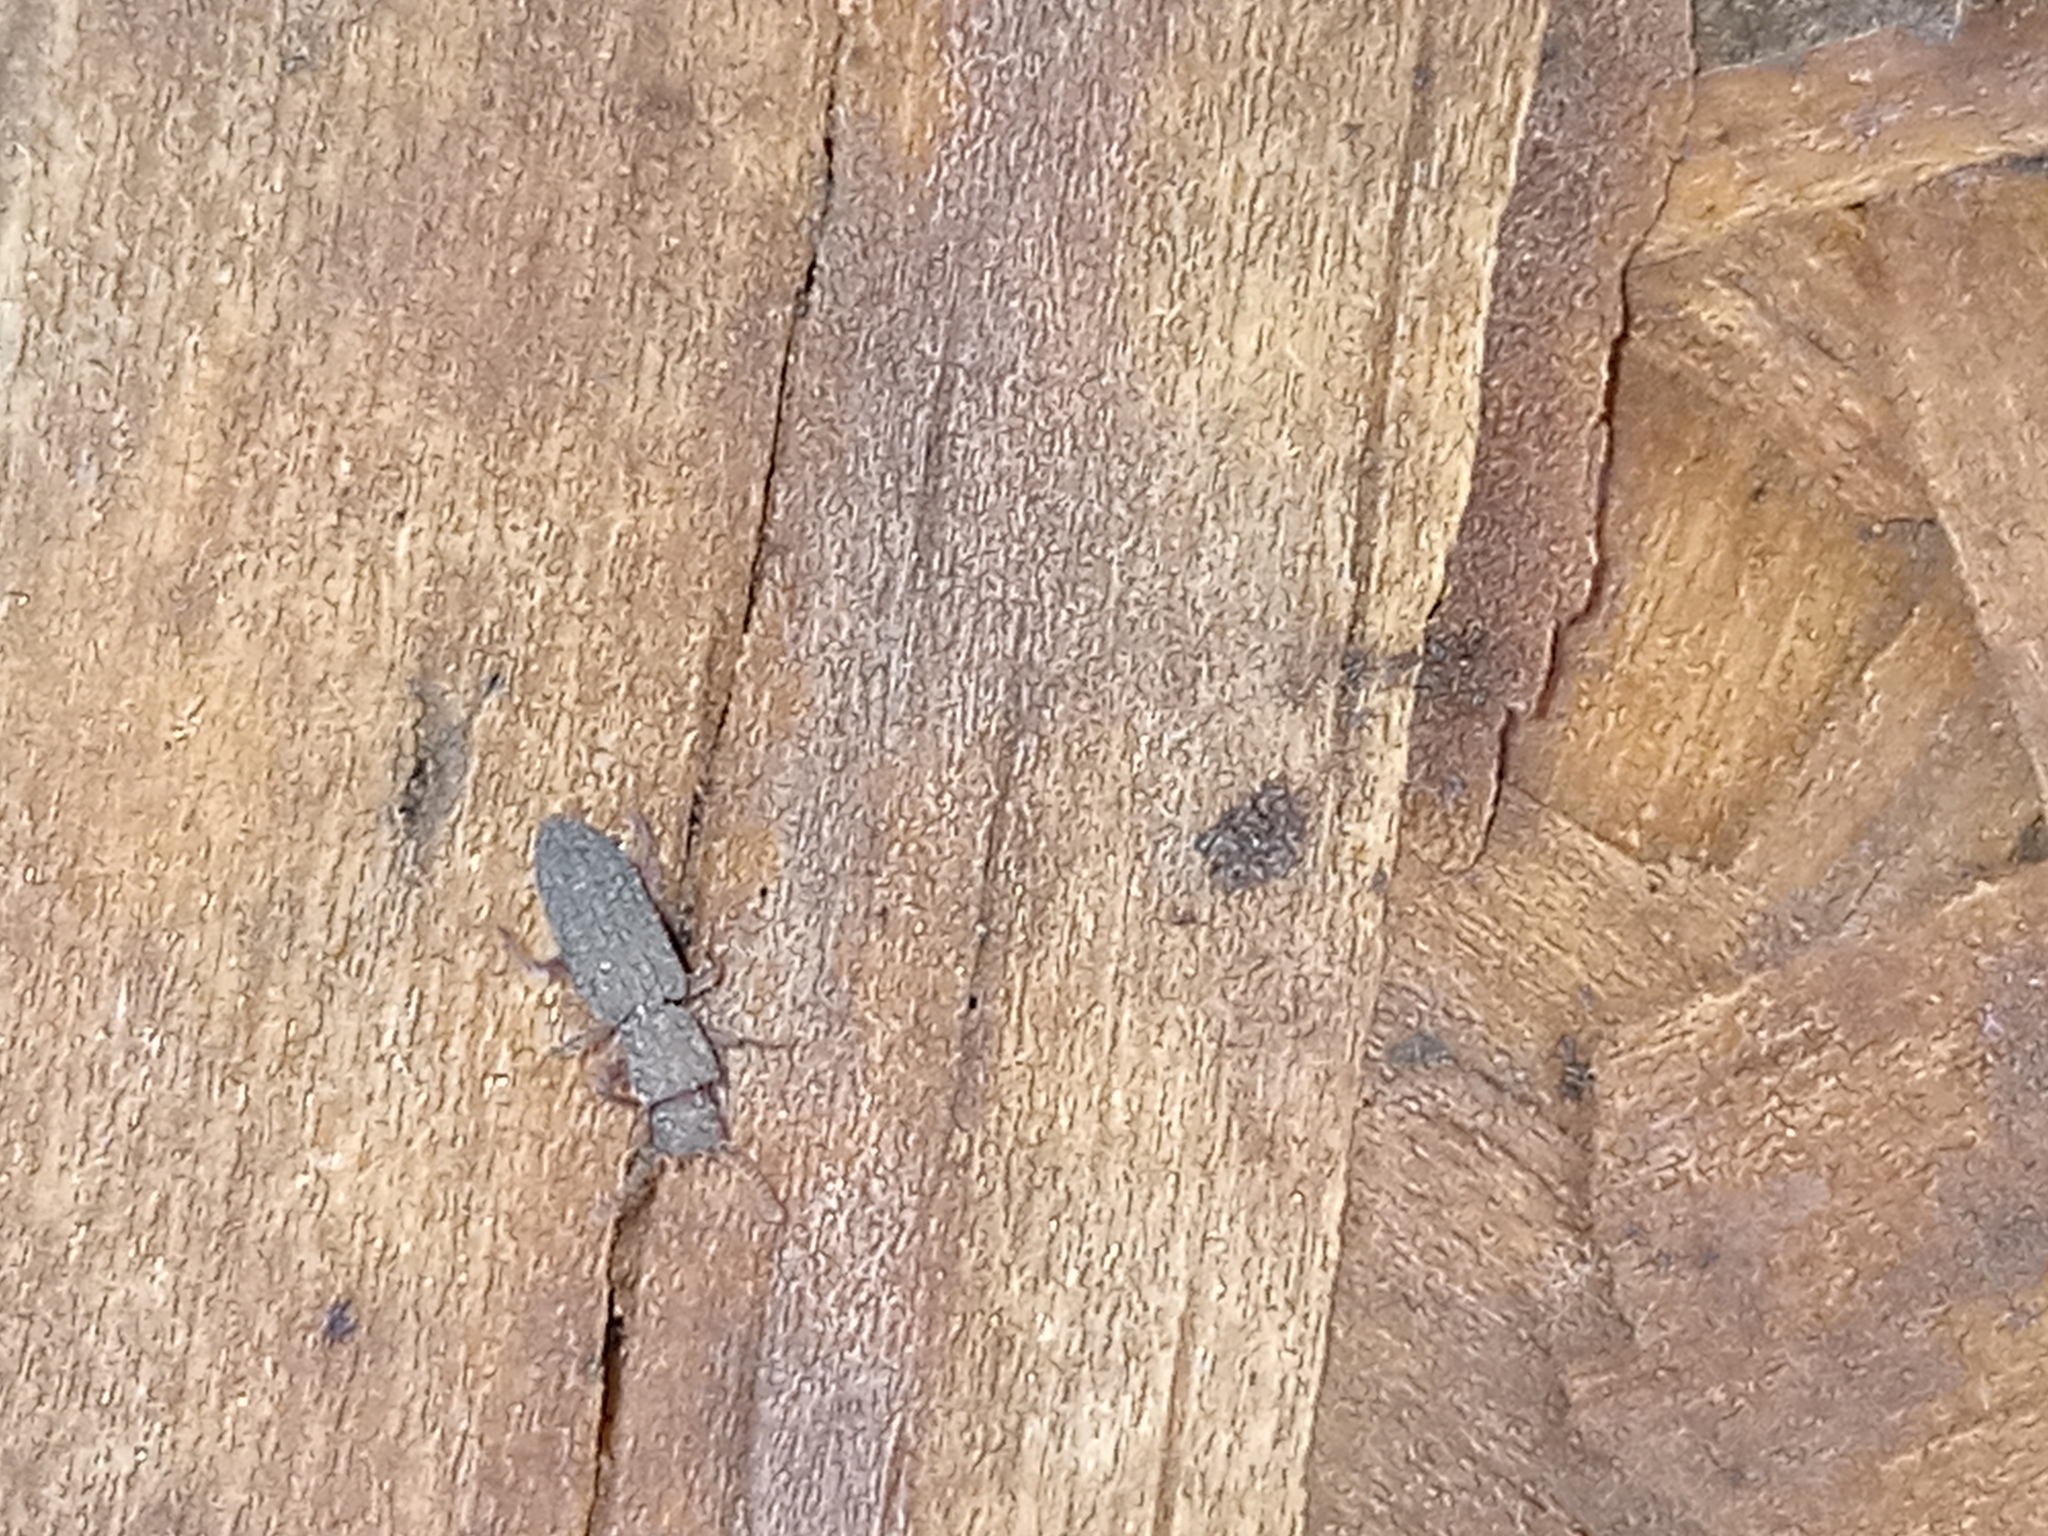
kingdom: Animalia
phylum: Arthropoda
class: Insecta
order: Coleoptera
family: Tenebrionidae
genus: Rhypasma
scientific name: Rhypasma
